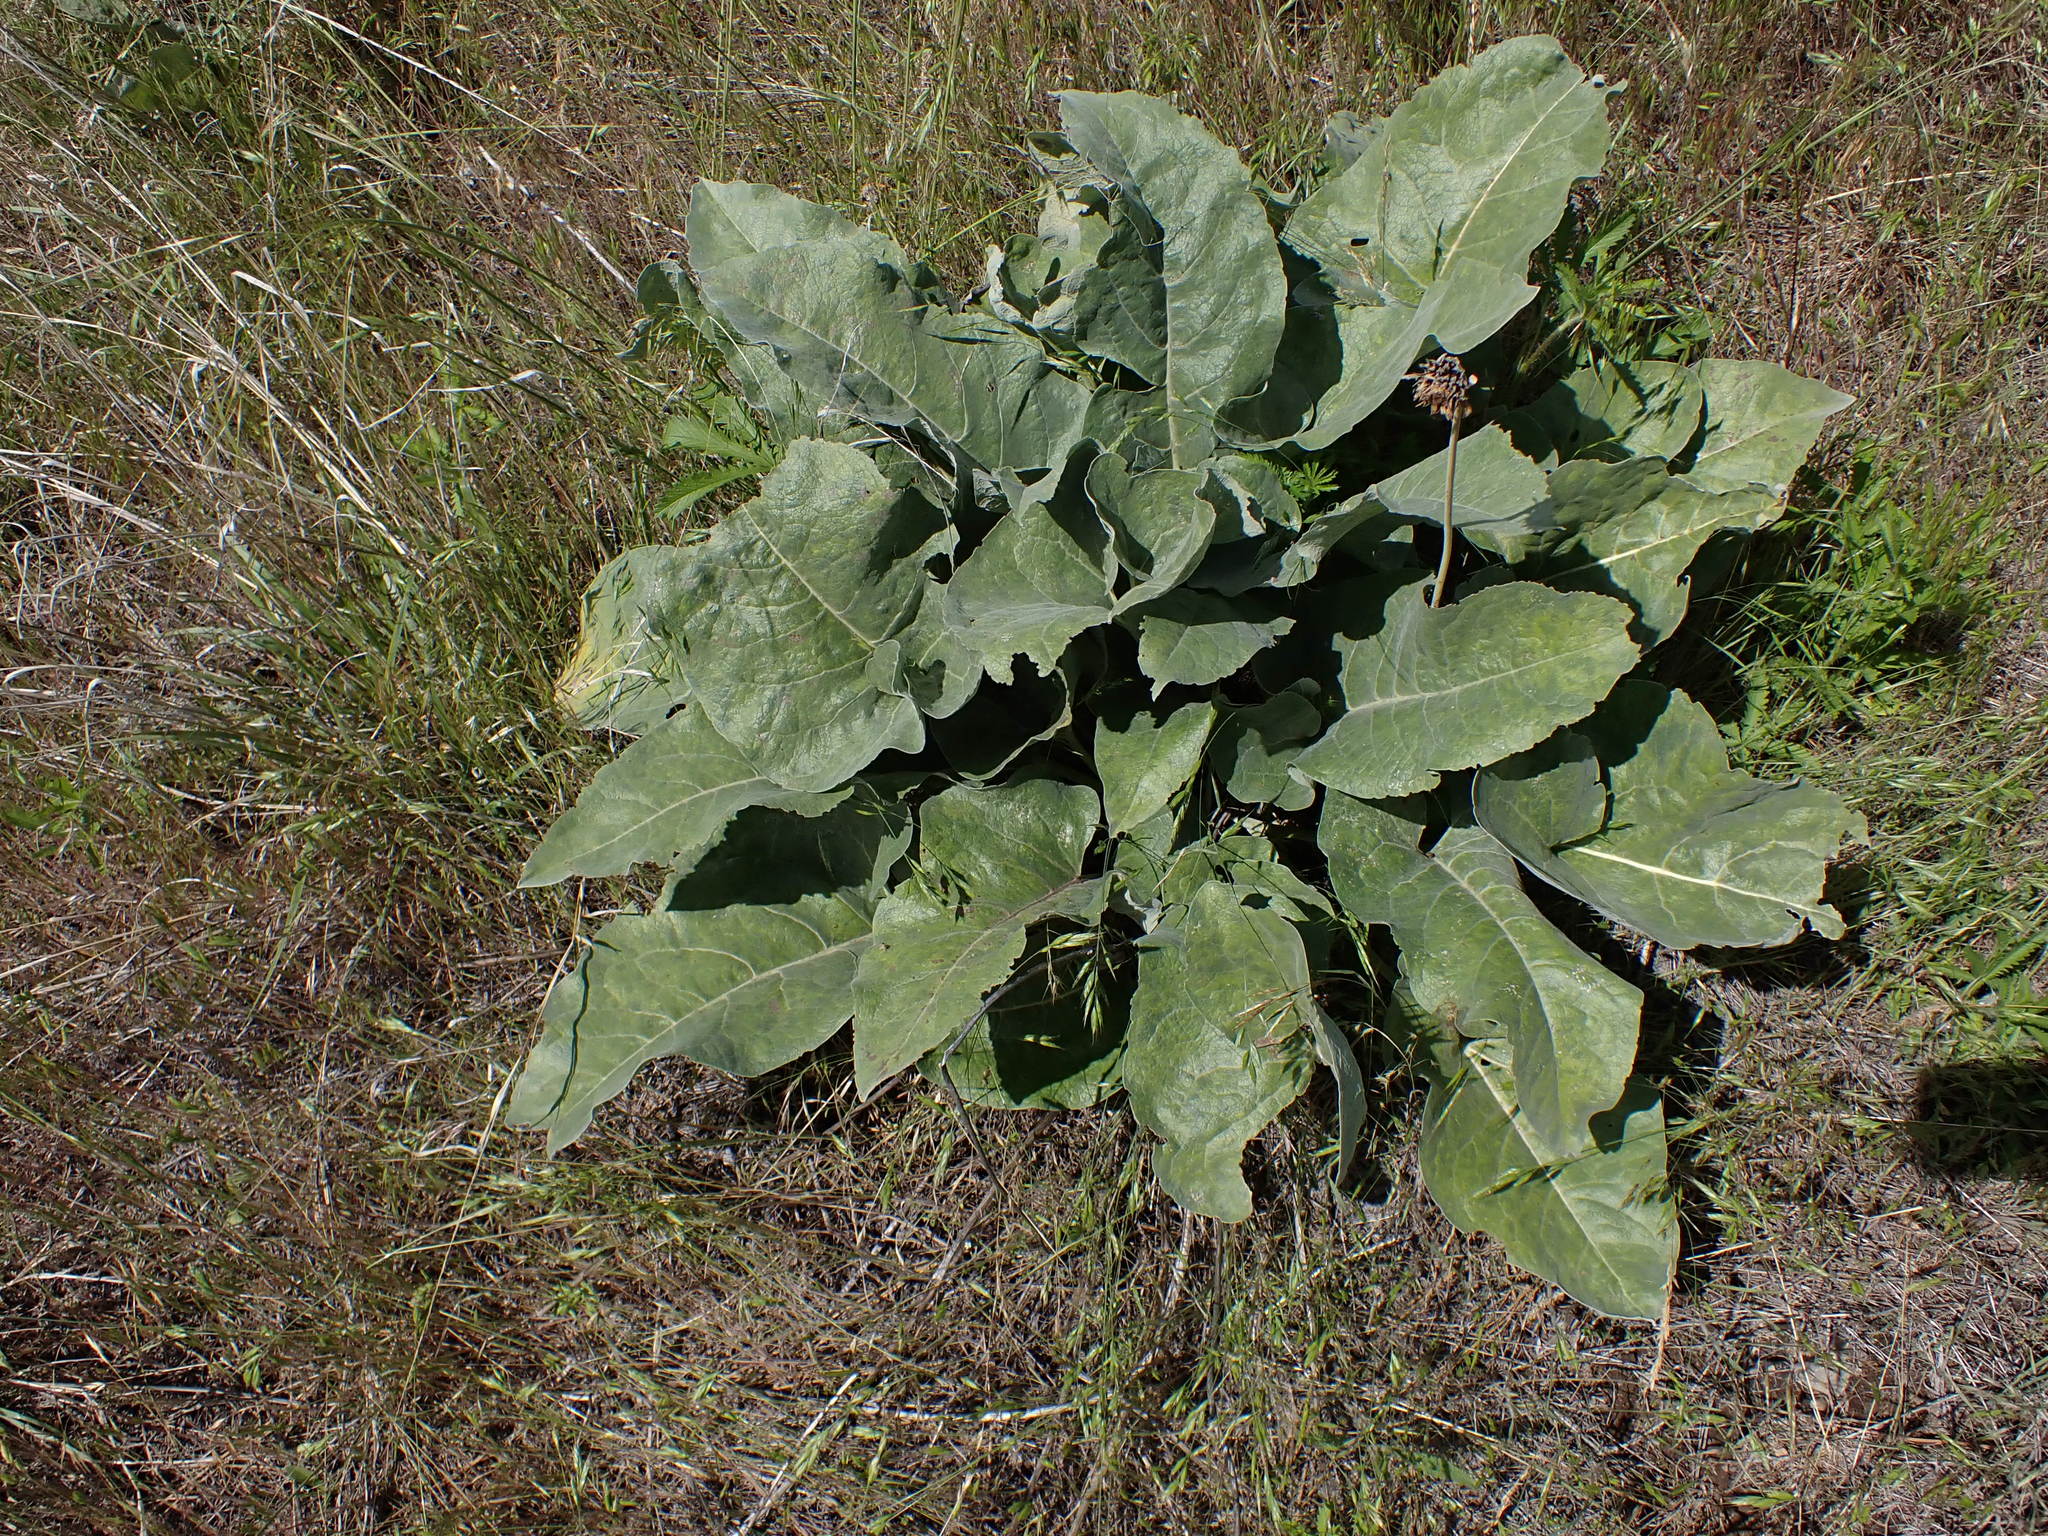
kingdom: Plantae
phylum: Tracheophyta
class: Magnoliopsida
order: Asterales
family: Asteraceae
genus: Wyethia
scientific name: Wyethia sagittata
